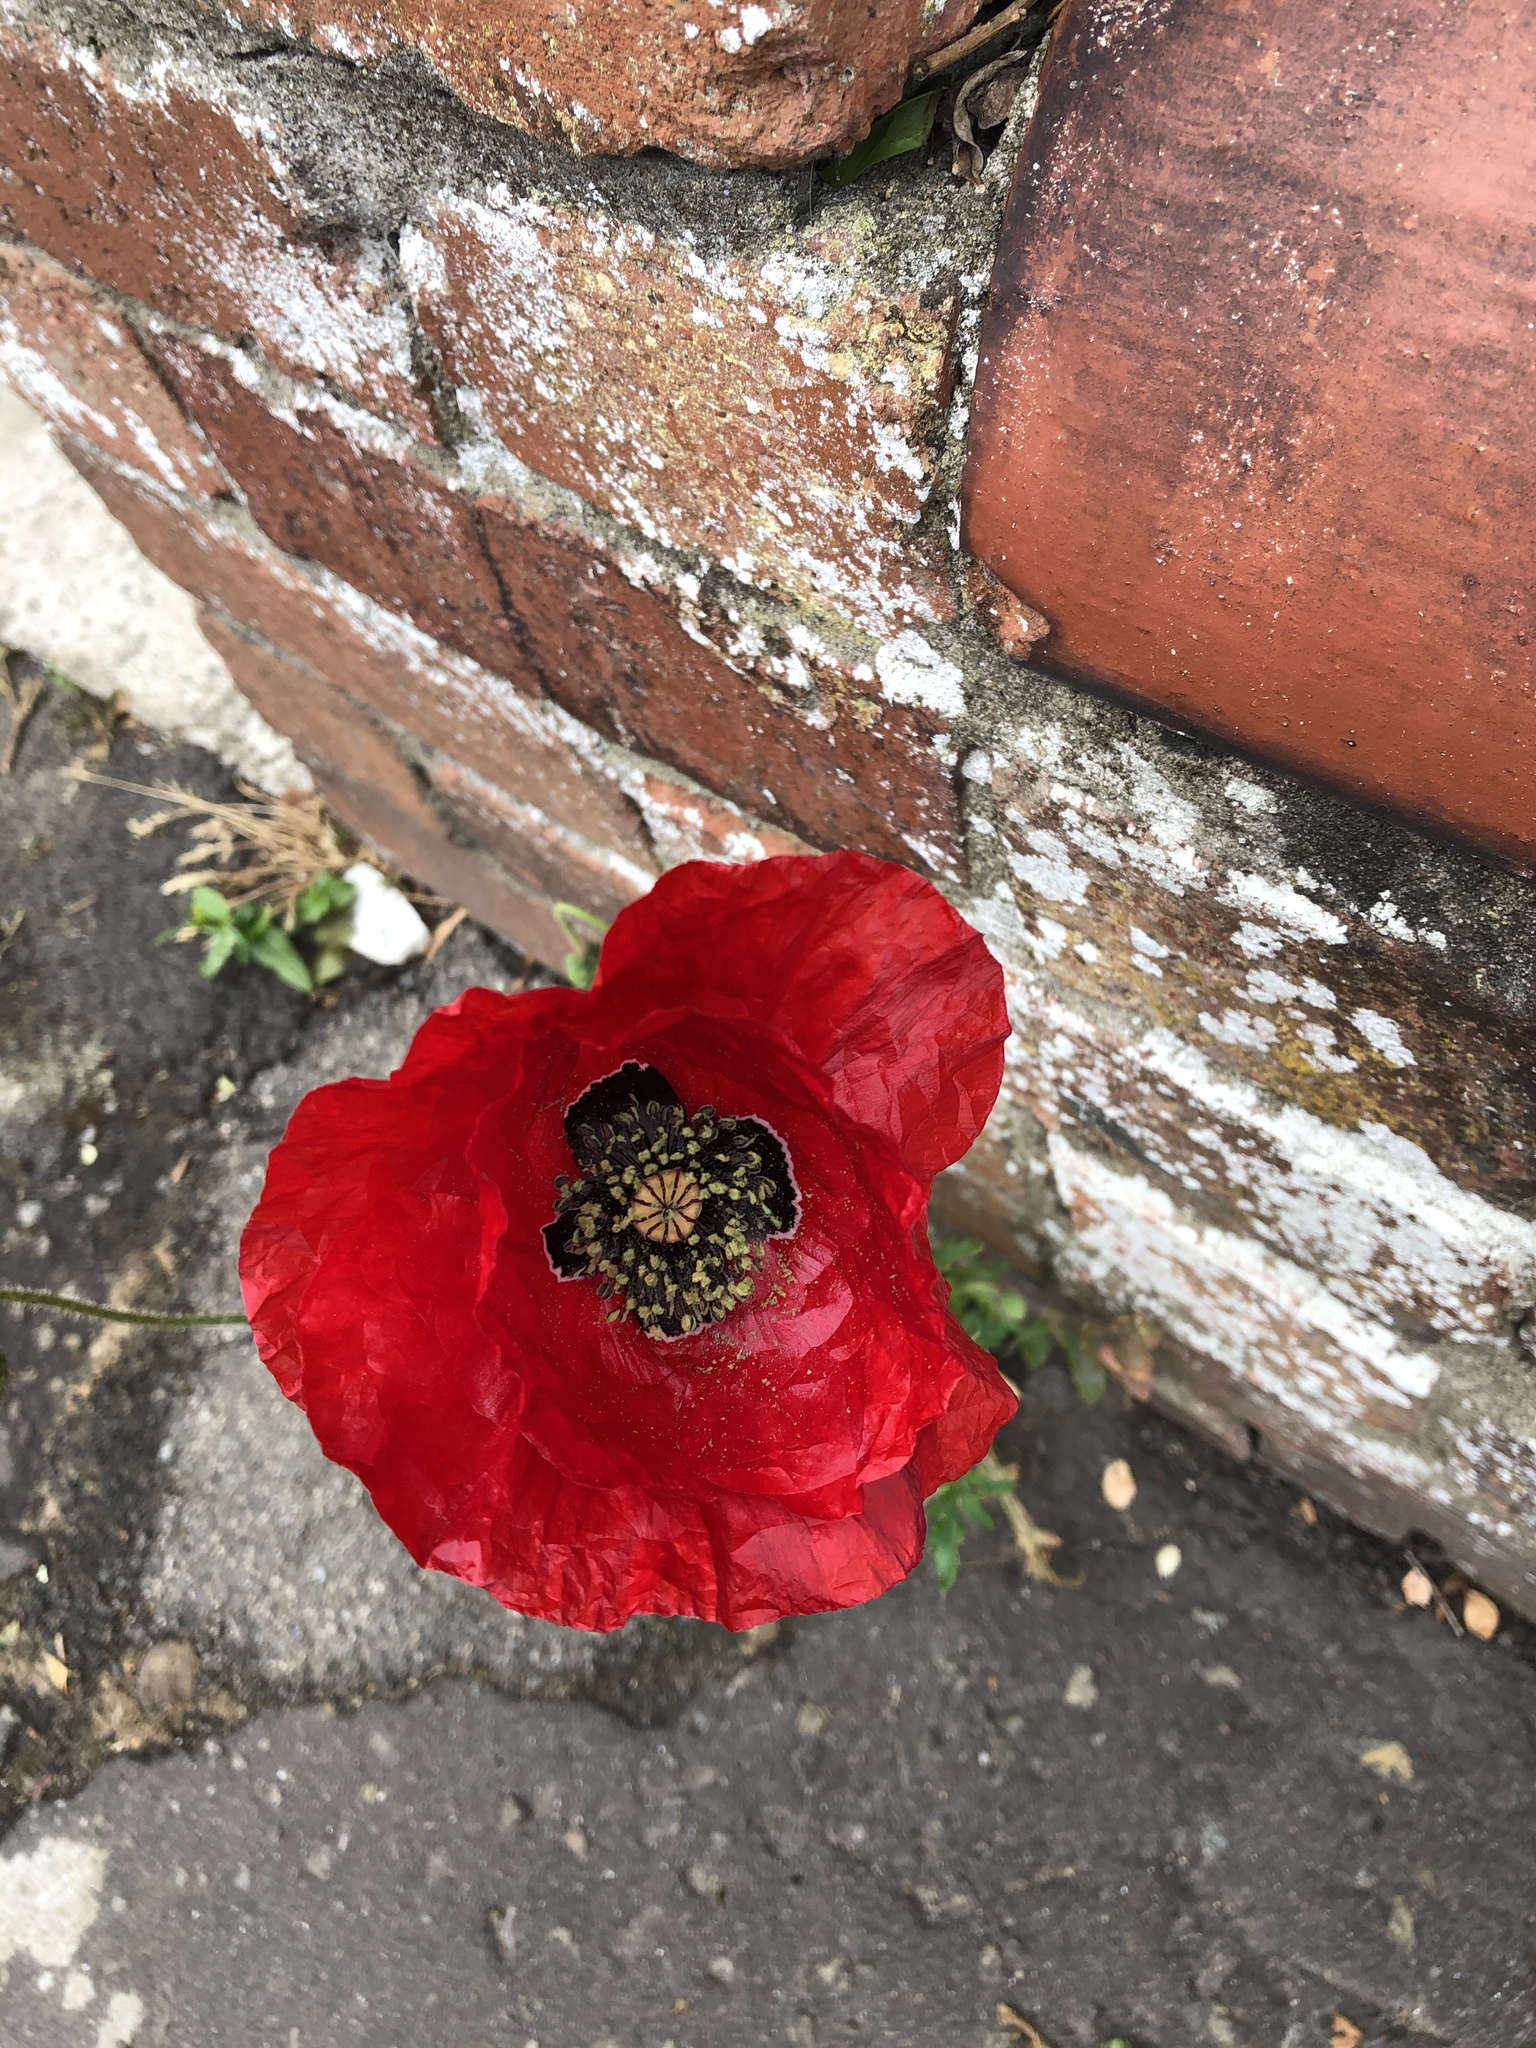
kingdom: Plantae
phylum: Tracheophyta
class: Magnoliopsida
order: Ranunculales
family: Papaveraceae
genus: Papaver
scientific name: Papaver rhoeas
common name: Corn poppy
